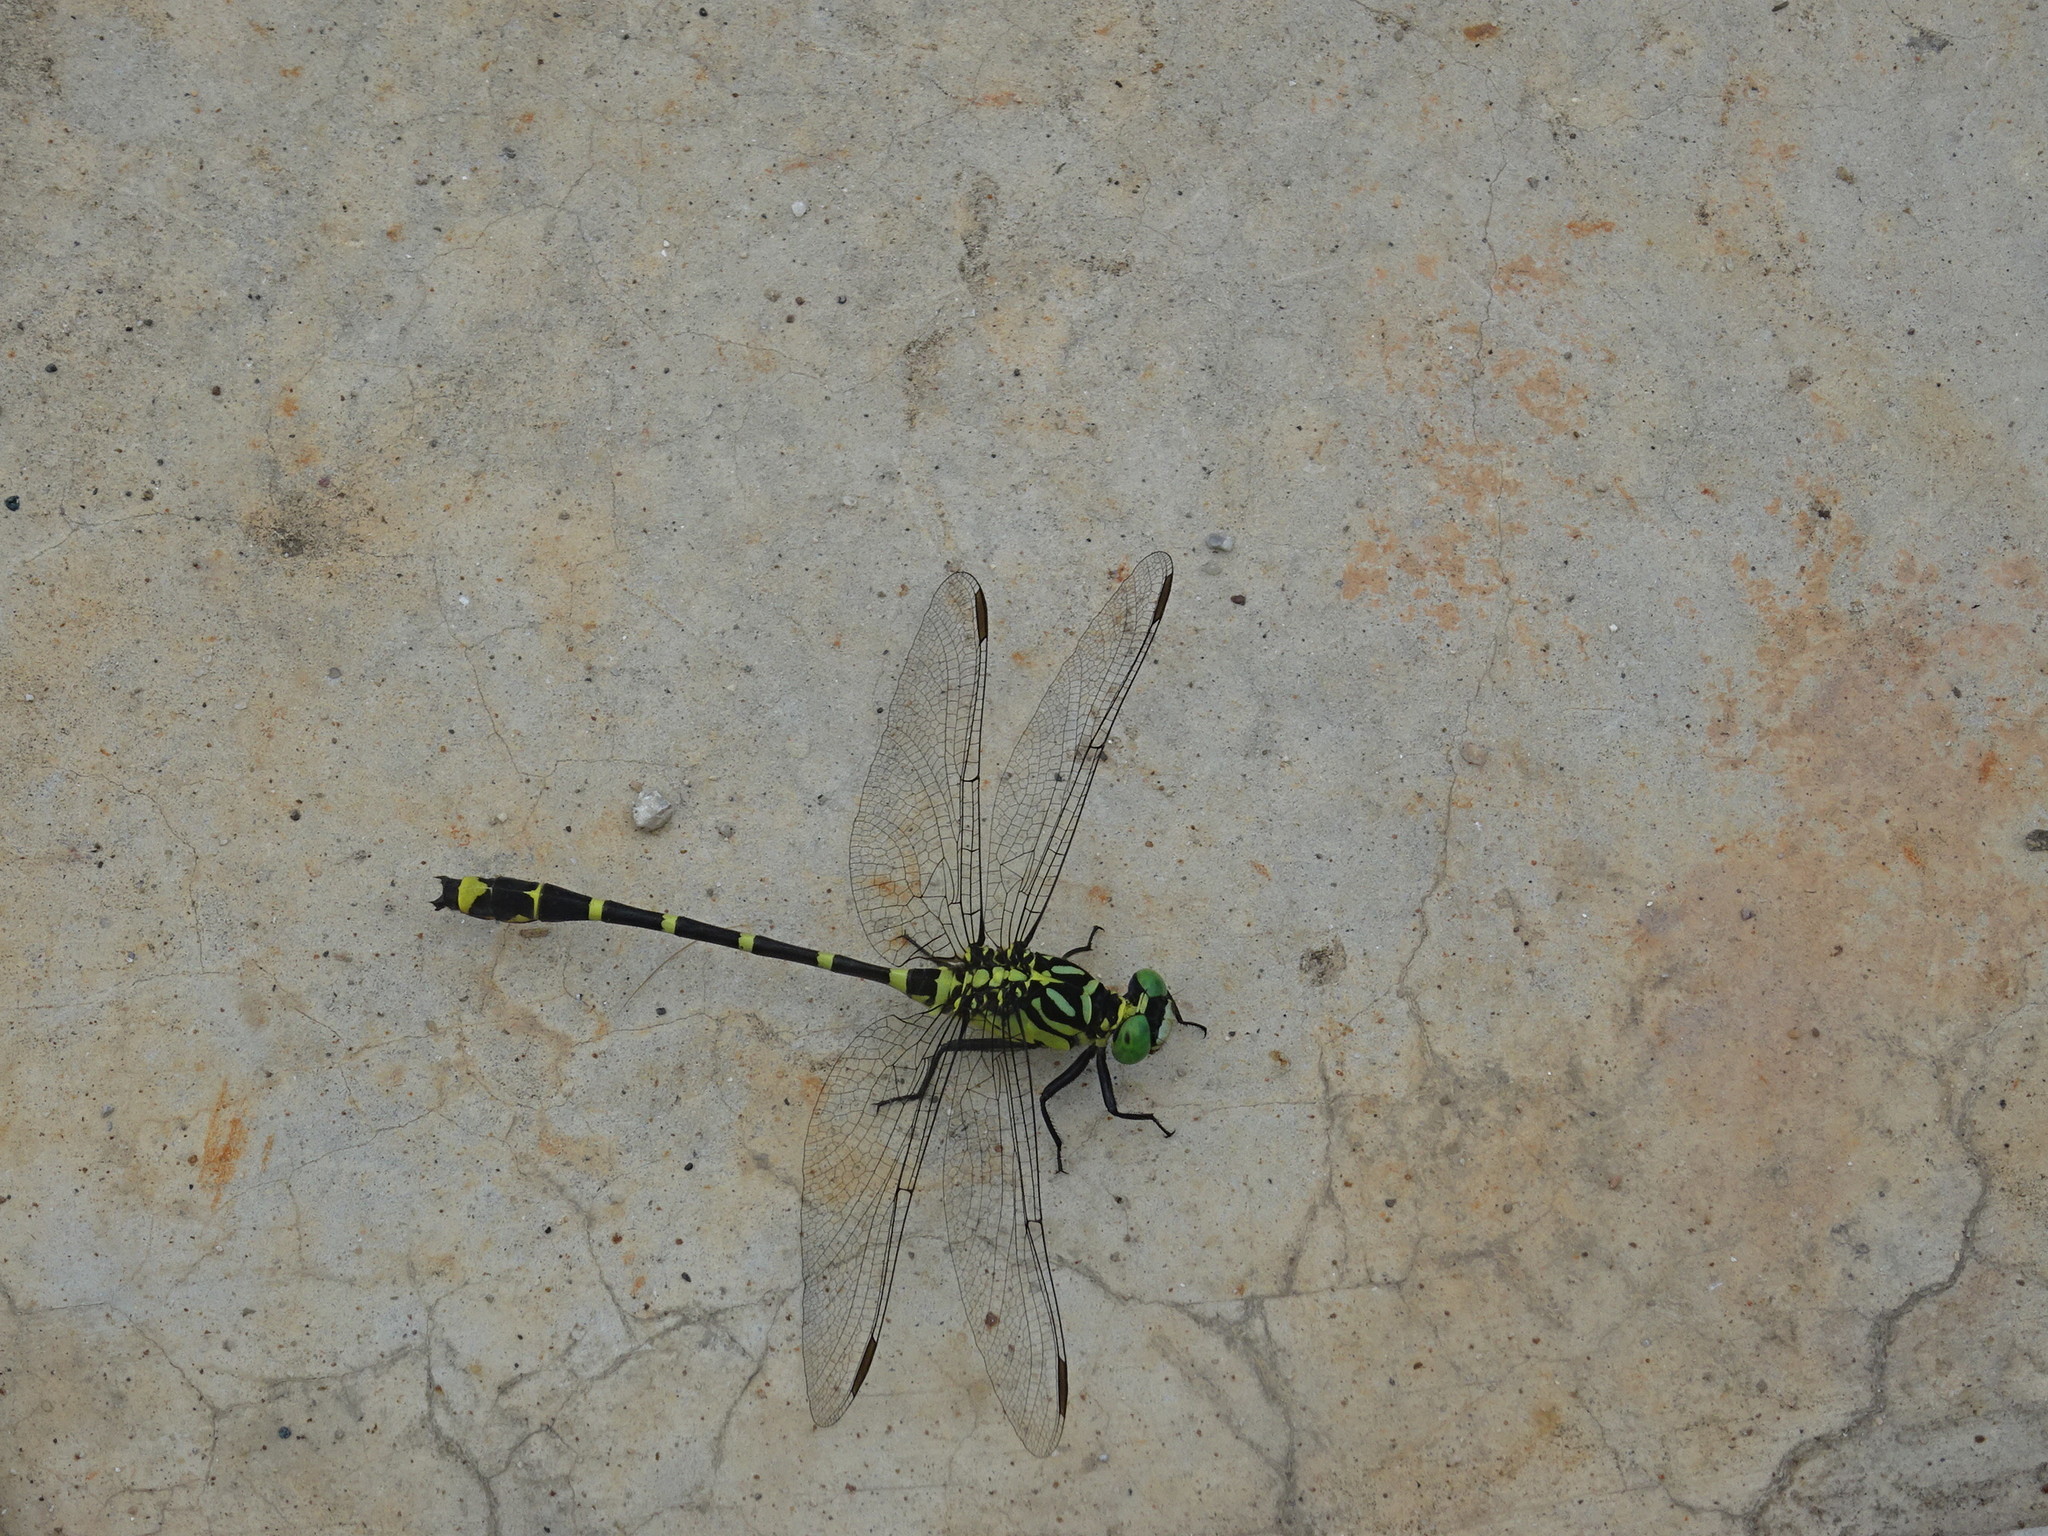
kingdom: Animalia
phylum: Arthropoda
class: Insecta
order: Odonata
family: Gomphidae
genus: Burmagomphus
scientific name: Burmagomphus collaris
